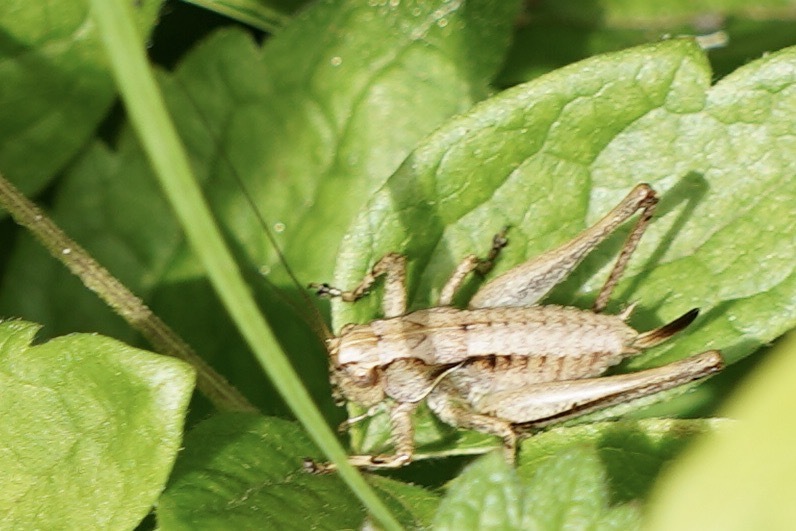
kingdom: Animalia
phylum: Arthropoda
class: Insecta
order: Orthoptera
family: Tettigoniidae
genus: Pholidoptera
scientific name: Pholidoptera griseoaptera
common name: Dark bush-cricket
